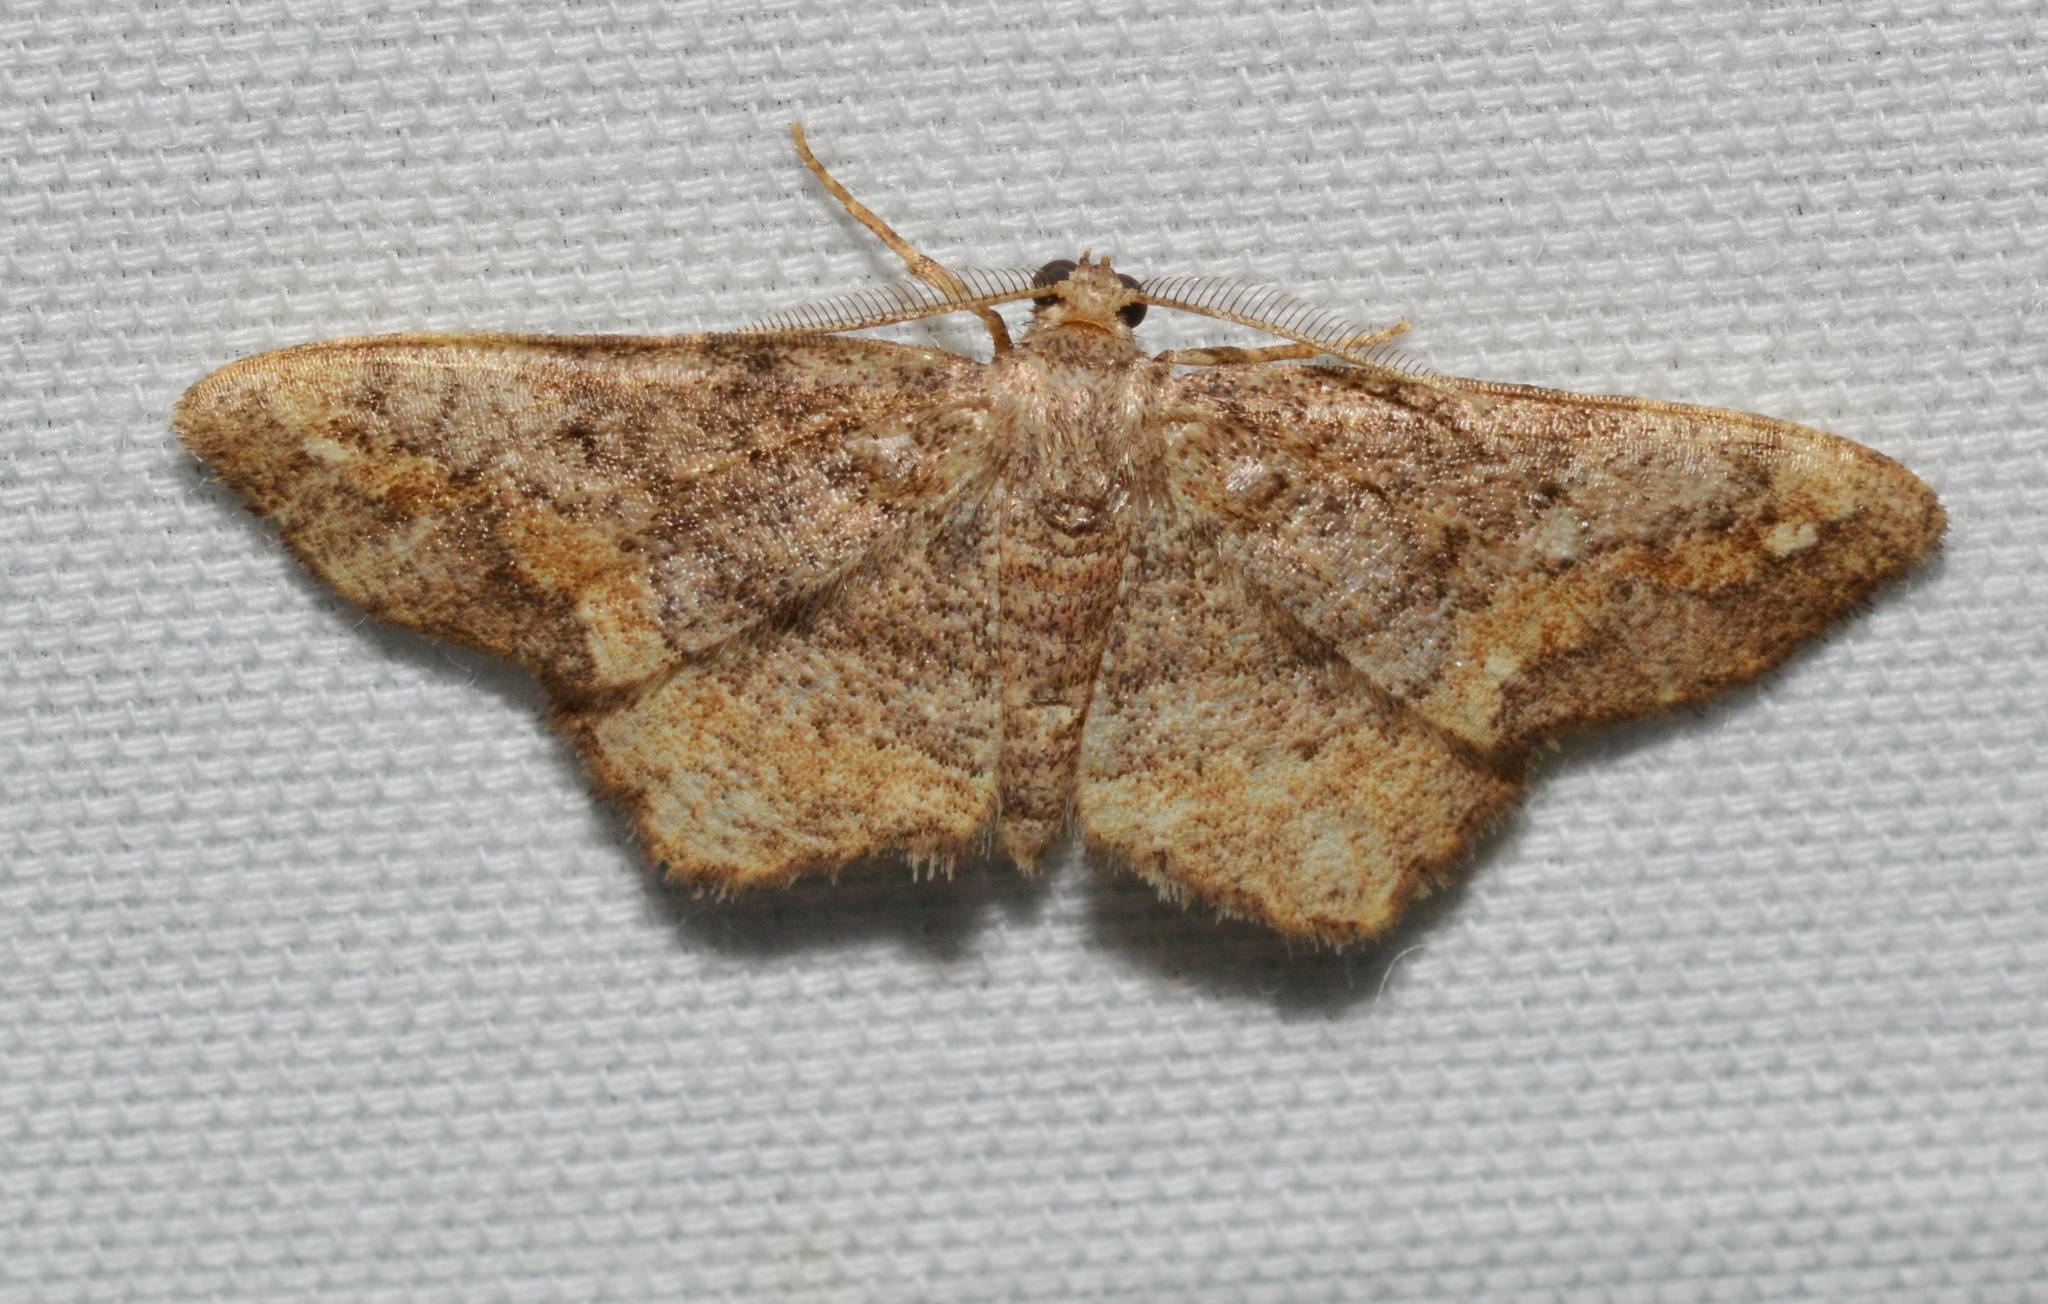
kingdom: Animalia
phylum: Arthropoda
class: Insecta
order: Lepidoptera
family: Geometridae
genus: Hypagyrtis
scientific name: Hypagyrtis unipunctata
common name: One-spotted variant
